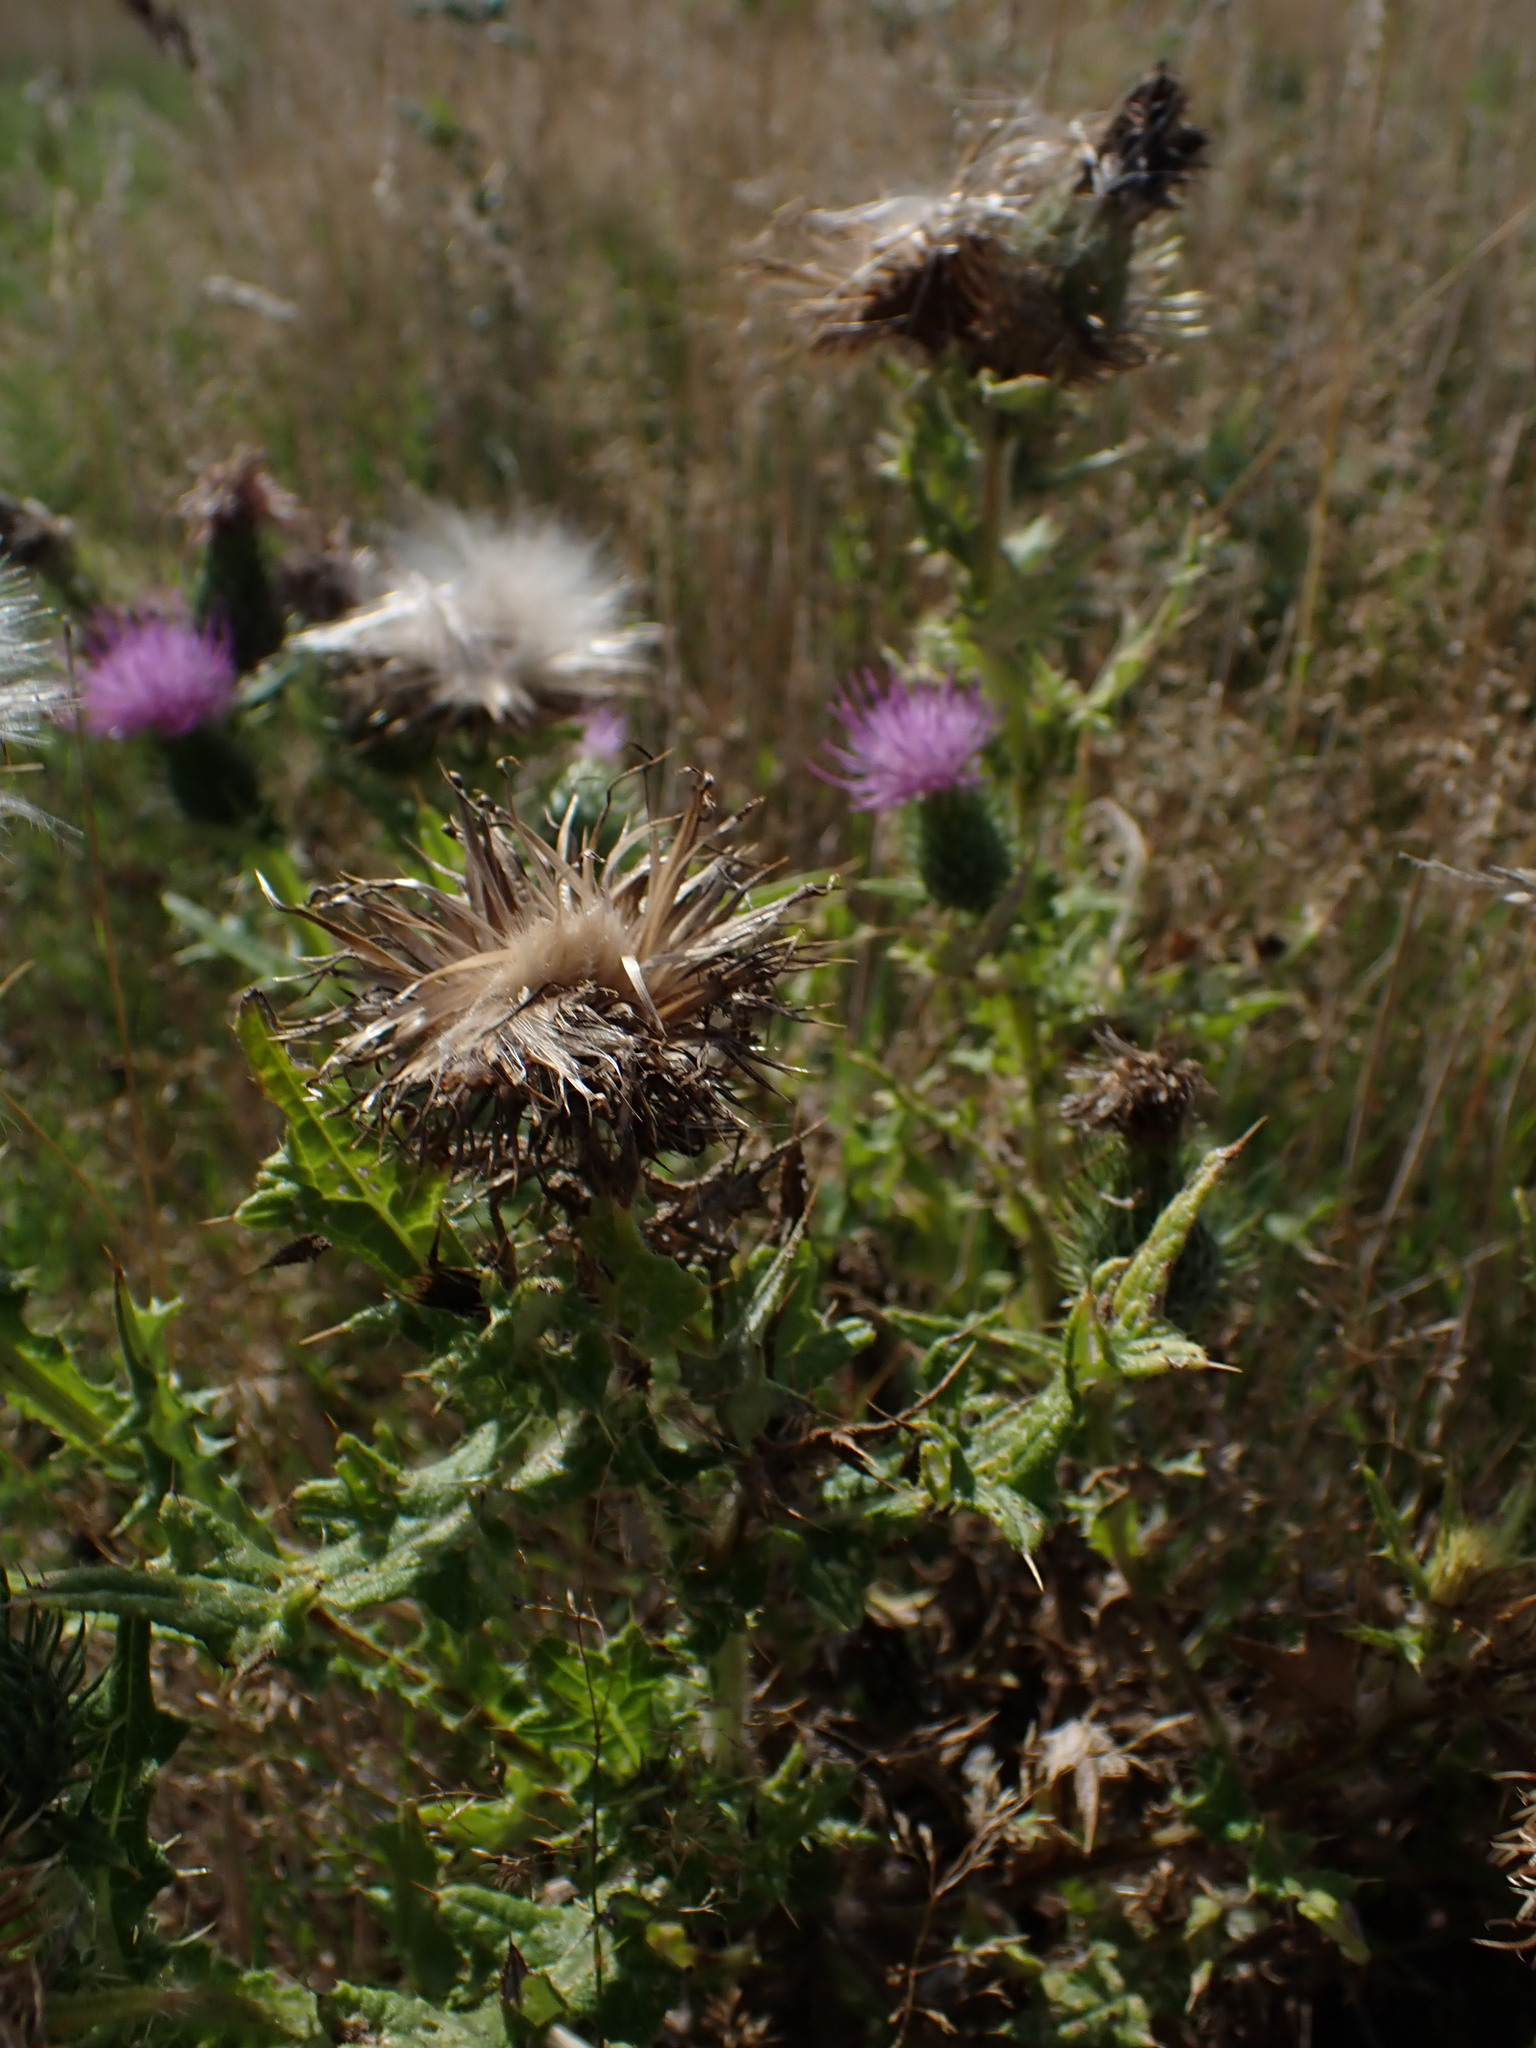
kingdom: Plantae
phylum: Tracheophyta
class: Magnoliopsida
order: Asterales
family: Asteraceae
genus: Cirsium
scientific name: Cirsium vulgare
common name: Bull thistle
